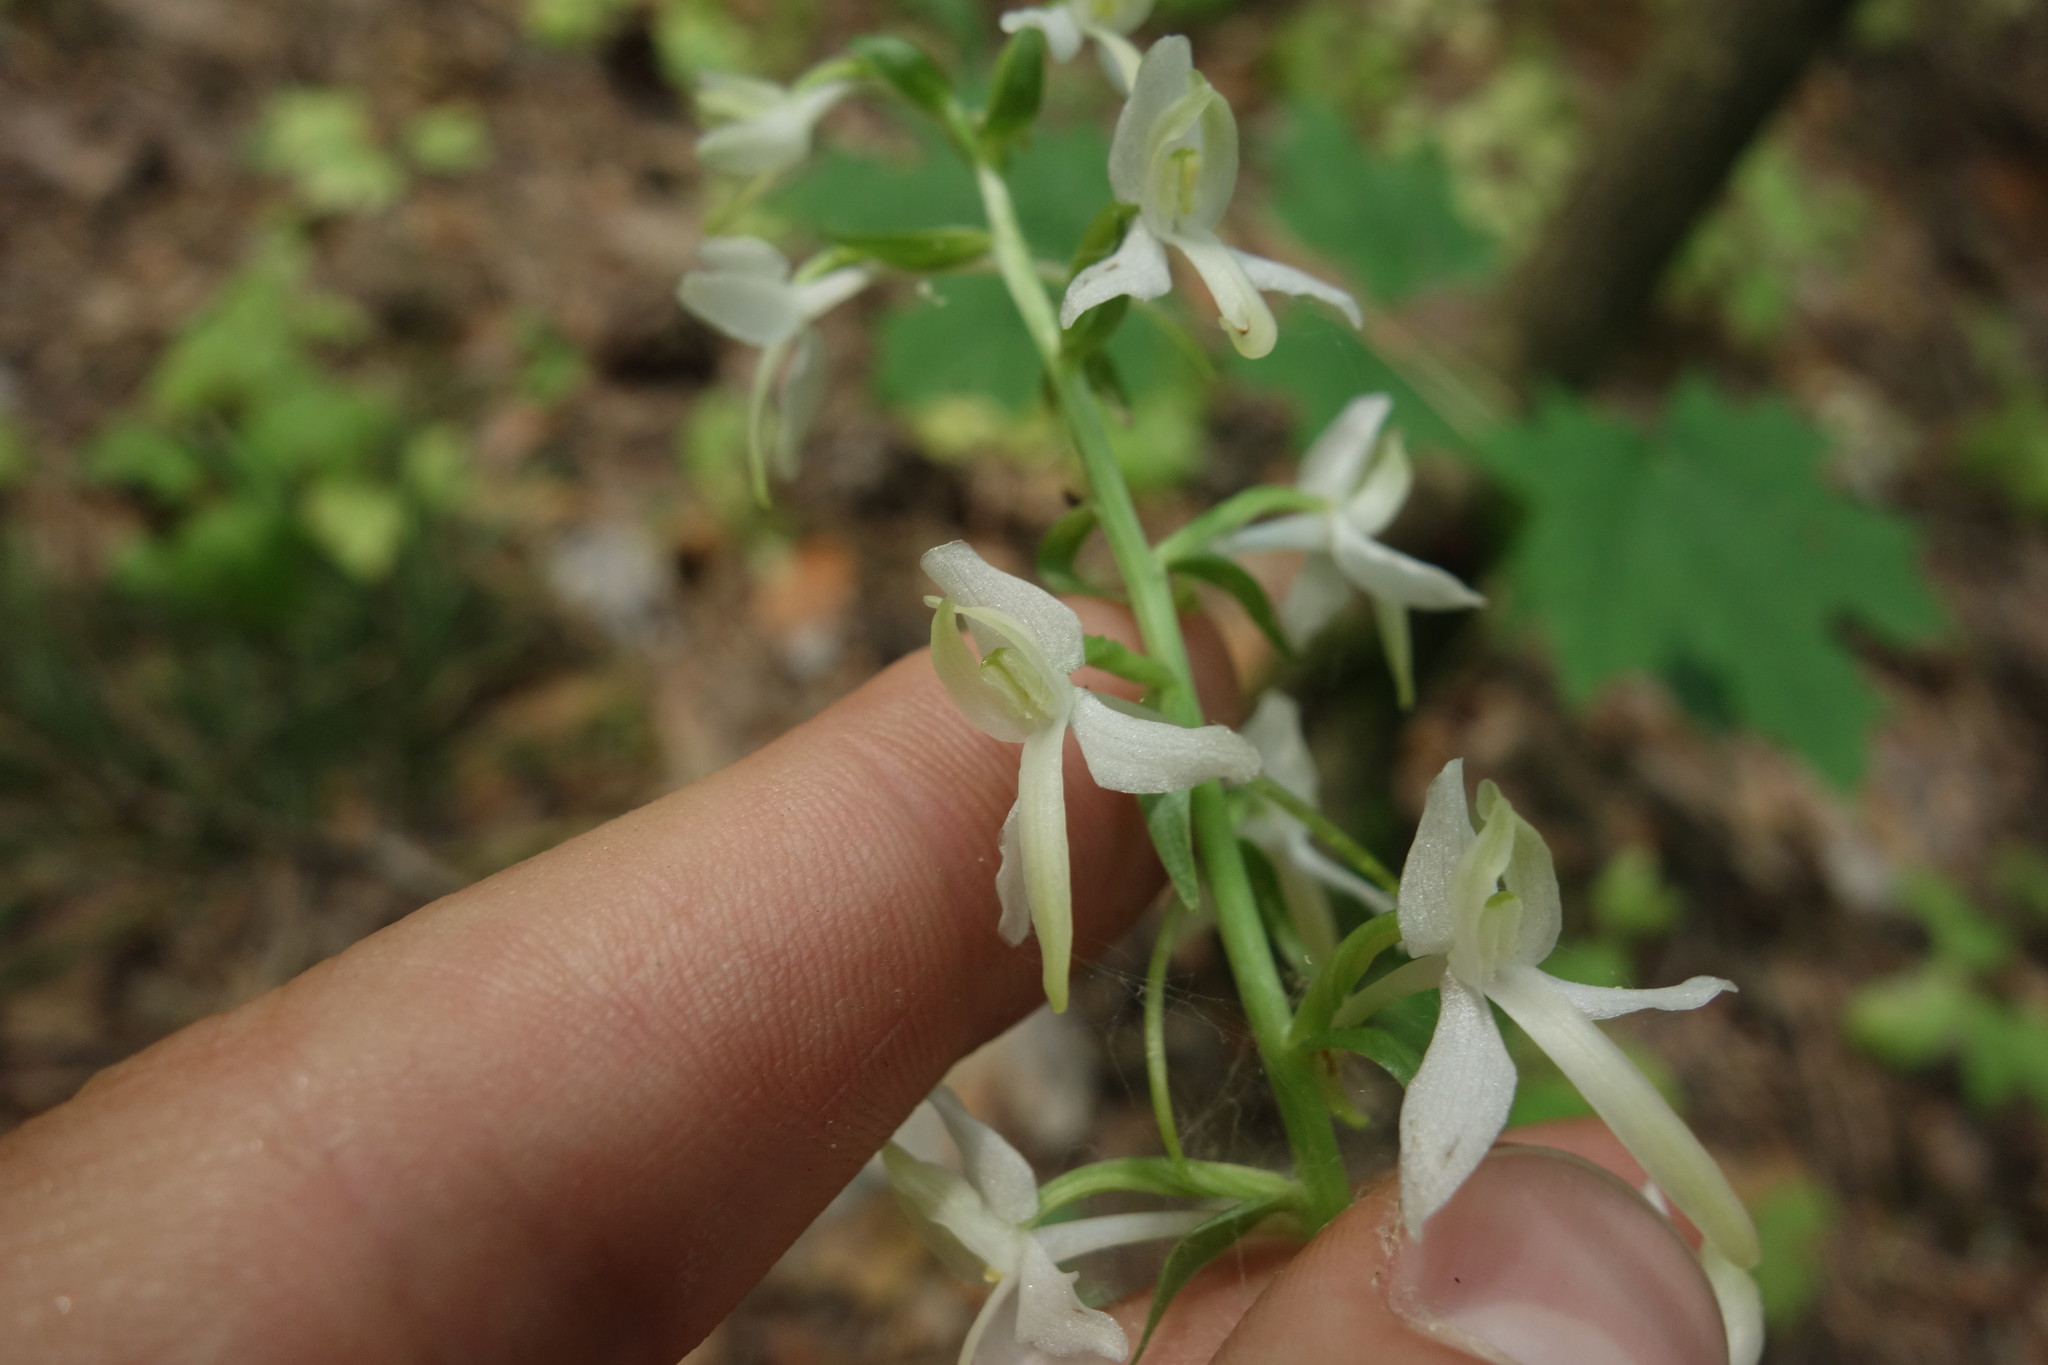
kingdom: Plantae
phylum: Tracheophyta
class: Liliopsida
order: Asparagales
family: Orchidaceae
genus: Platanthera
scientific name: Platanthera bifolia
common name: Lesser butterfly-orchid
